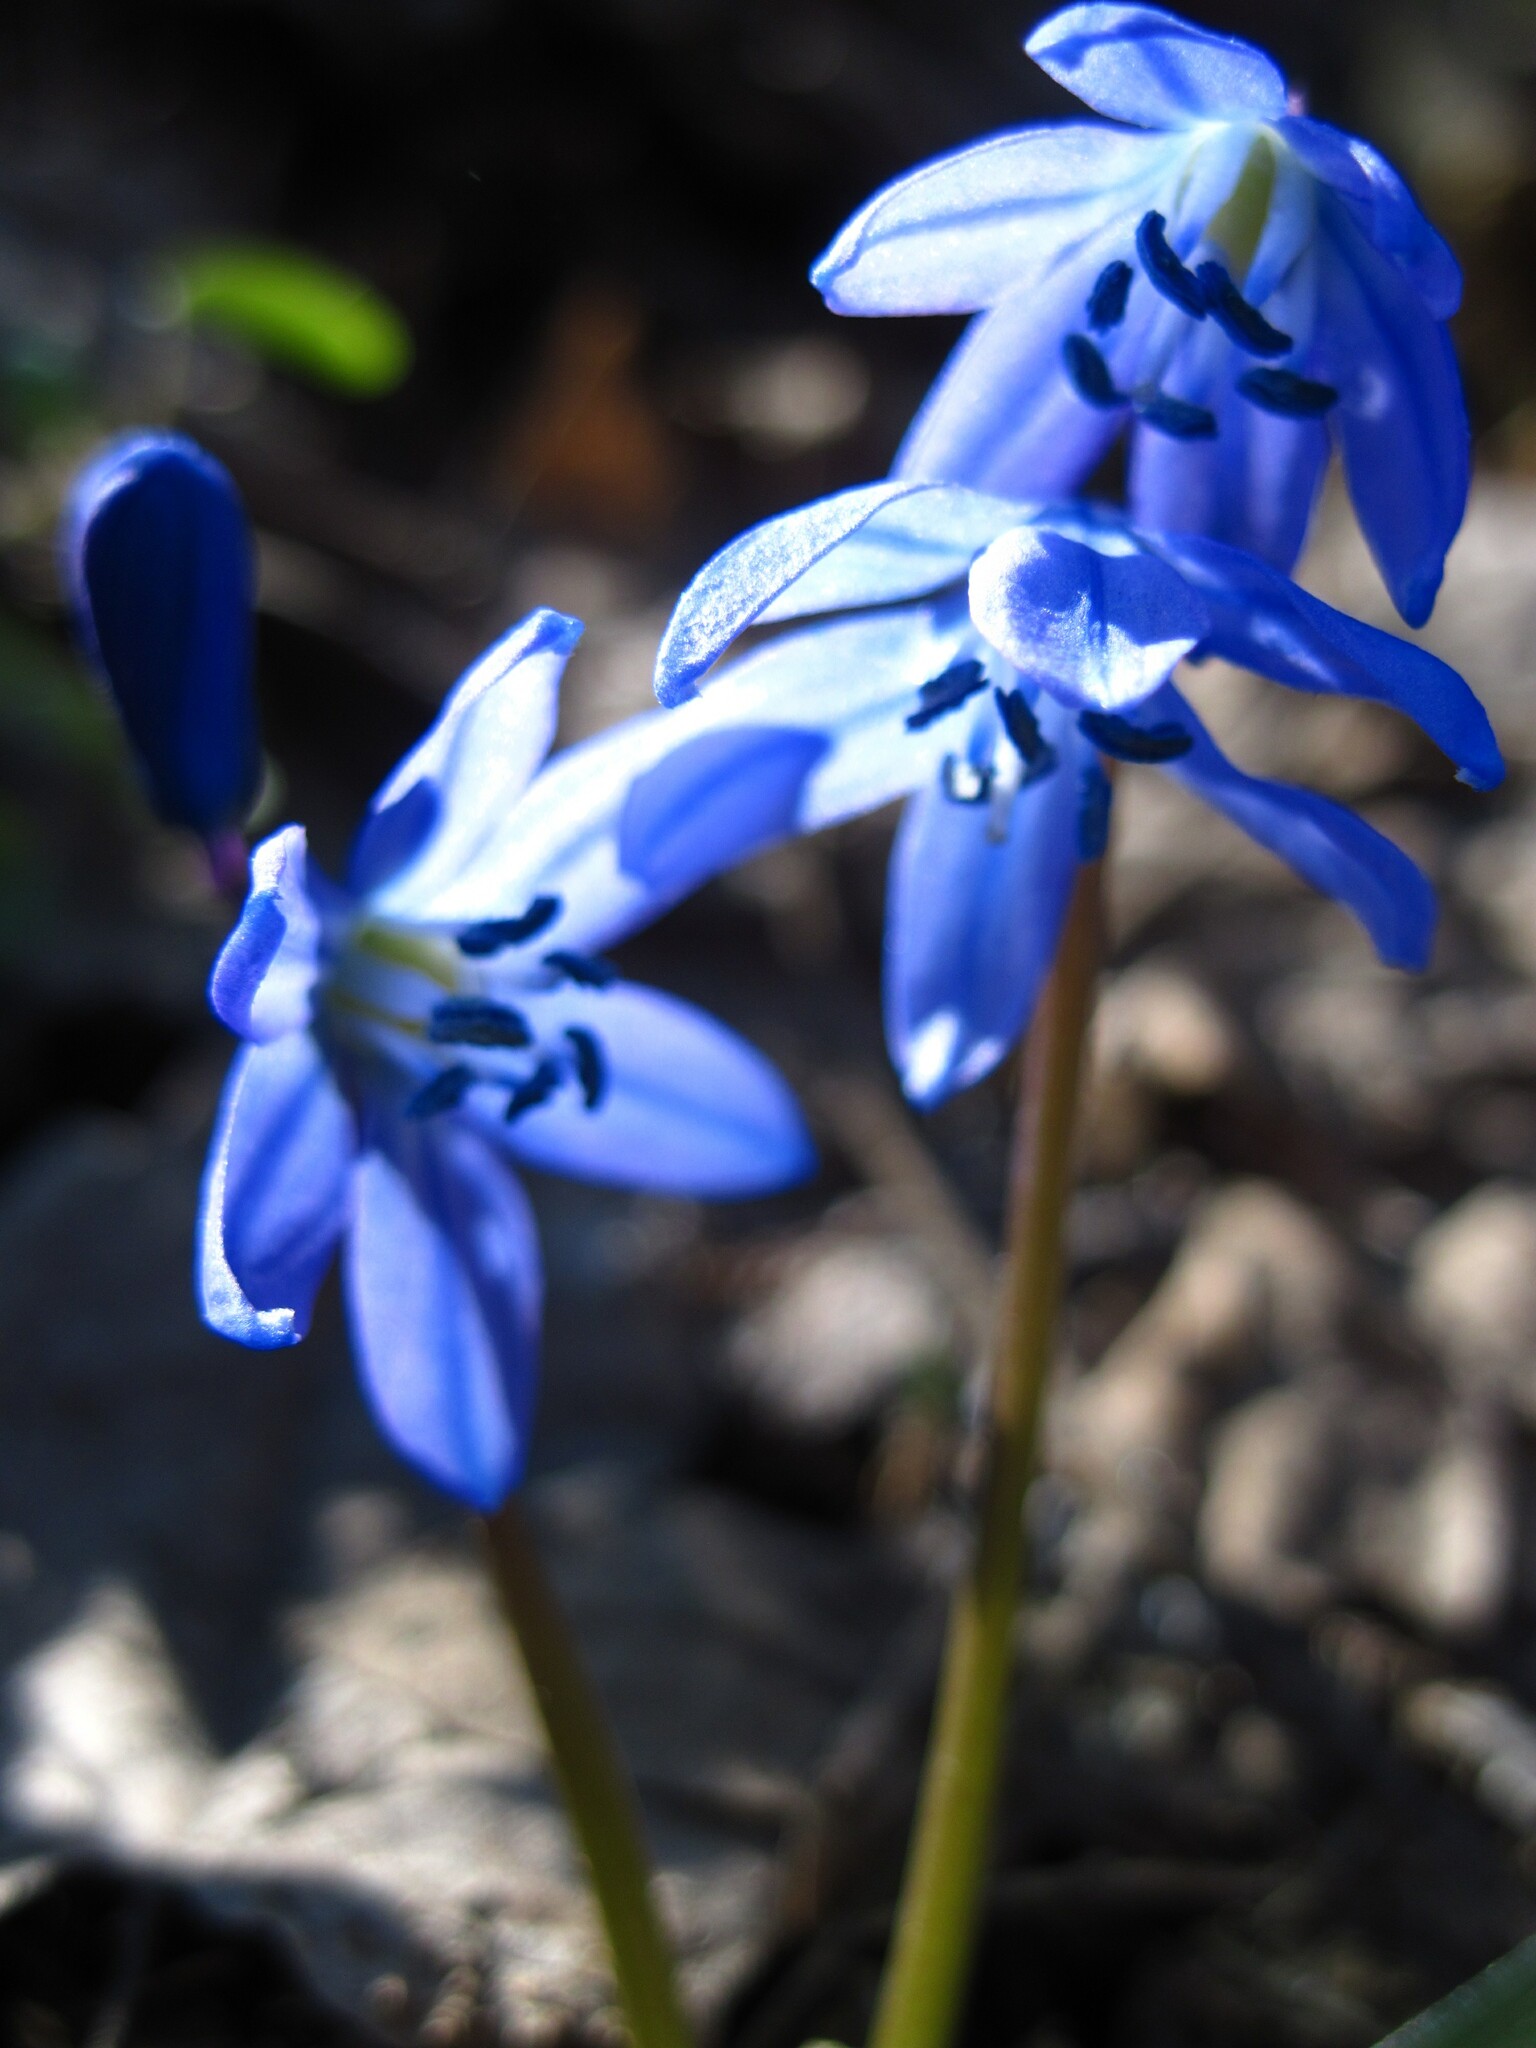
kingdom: Plantae
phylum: Tracheophyta
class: Liliopsida
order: Asparagales
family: Asparagaceae
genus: Scilla
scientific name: Scilla siberica
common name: Siberian squill
